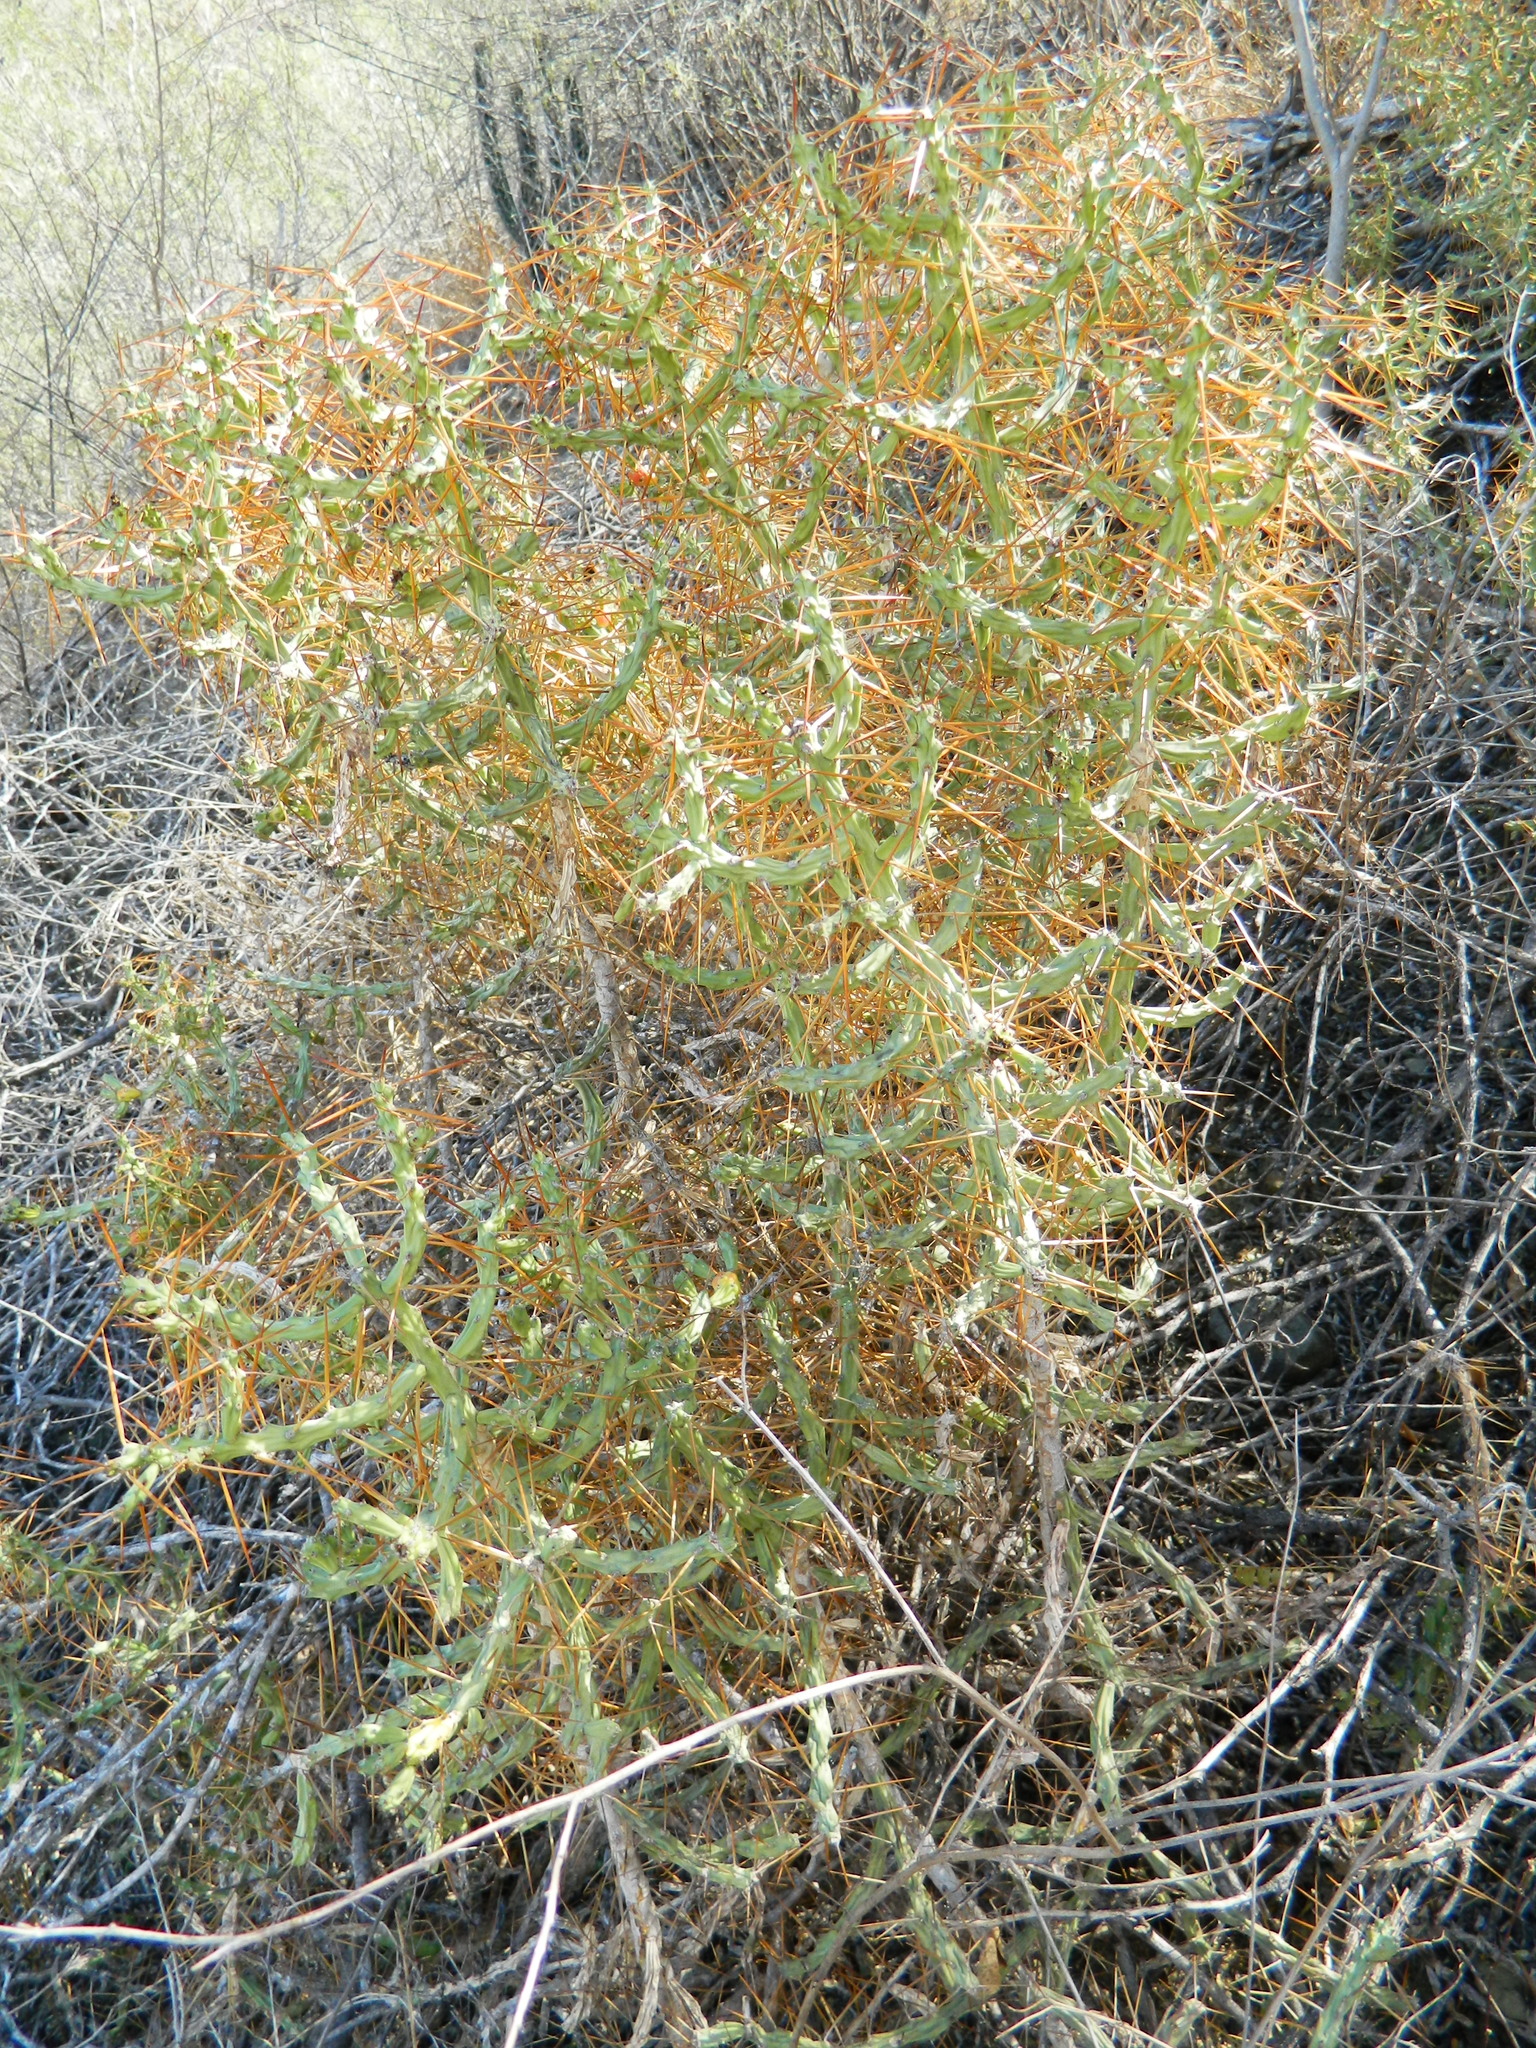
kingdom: Plantae
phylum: Tracheophyta
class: Magnoliopsida
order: Caryophyllales
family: Cactaceae
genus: Cylindropuntia
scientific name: Cylindropuntia caribaea
